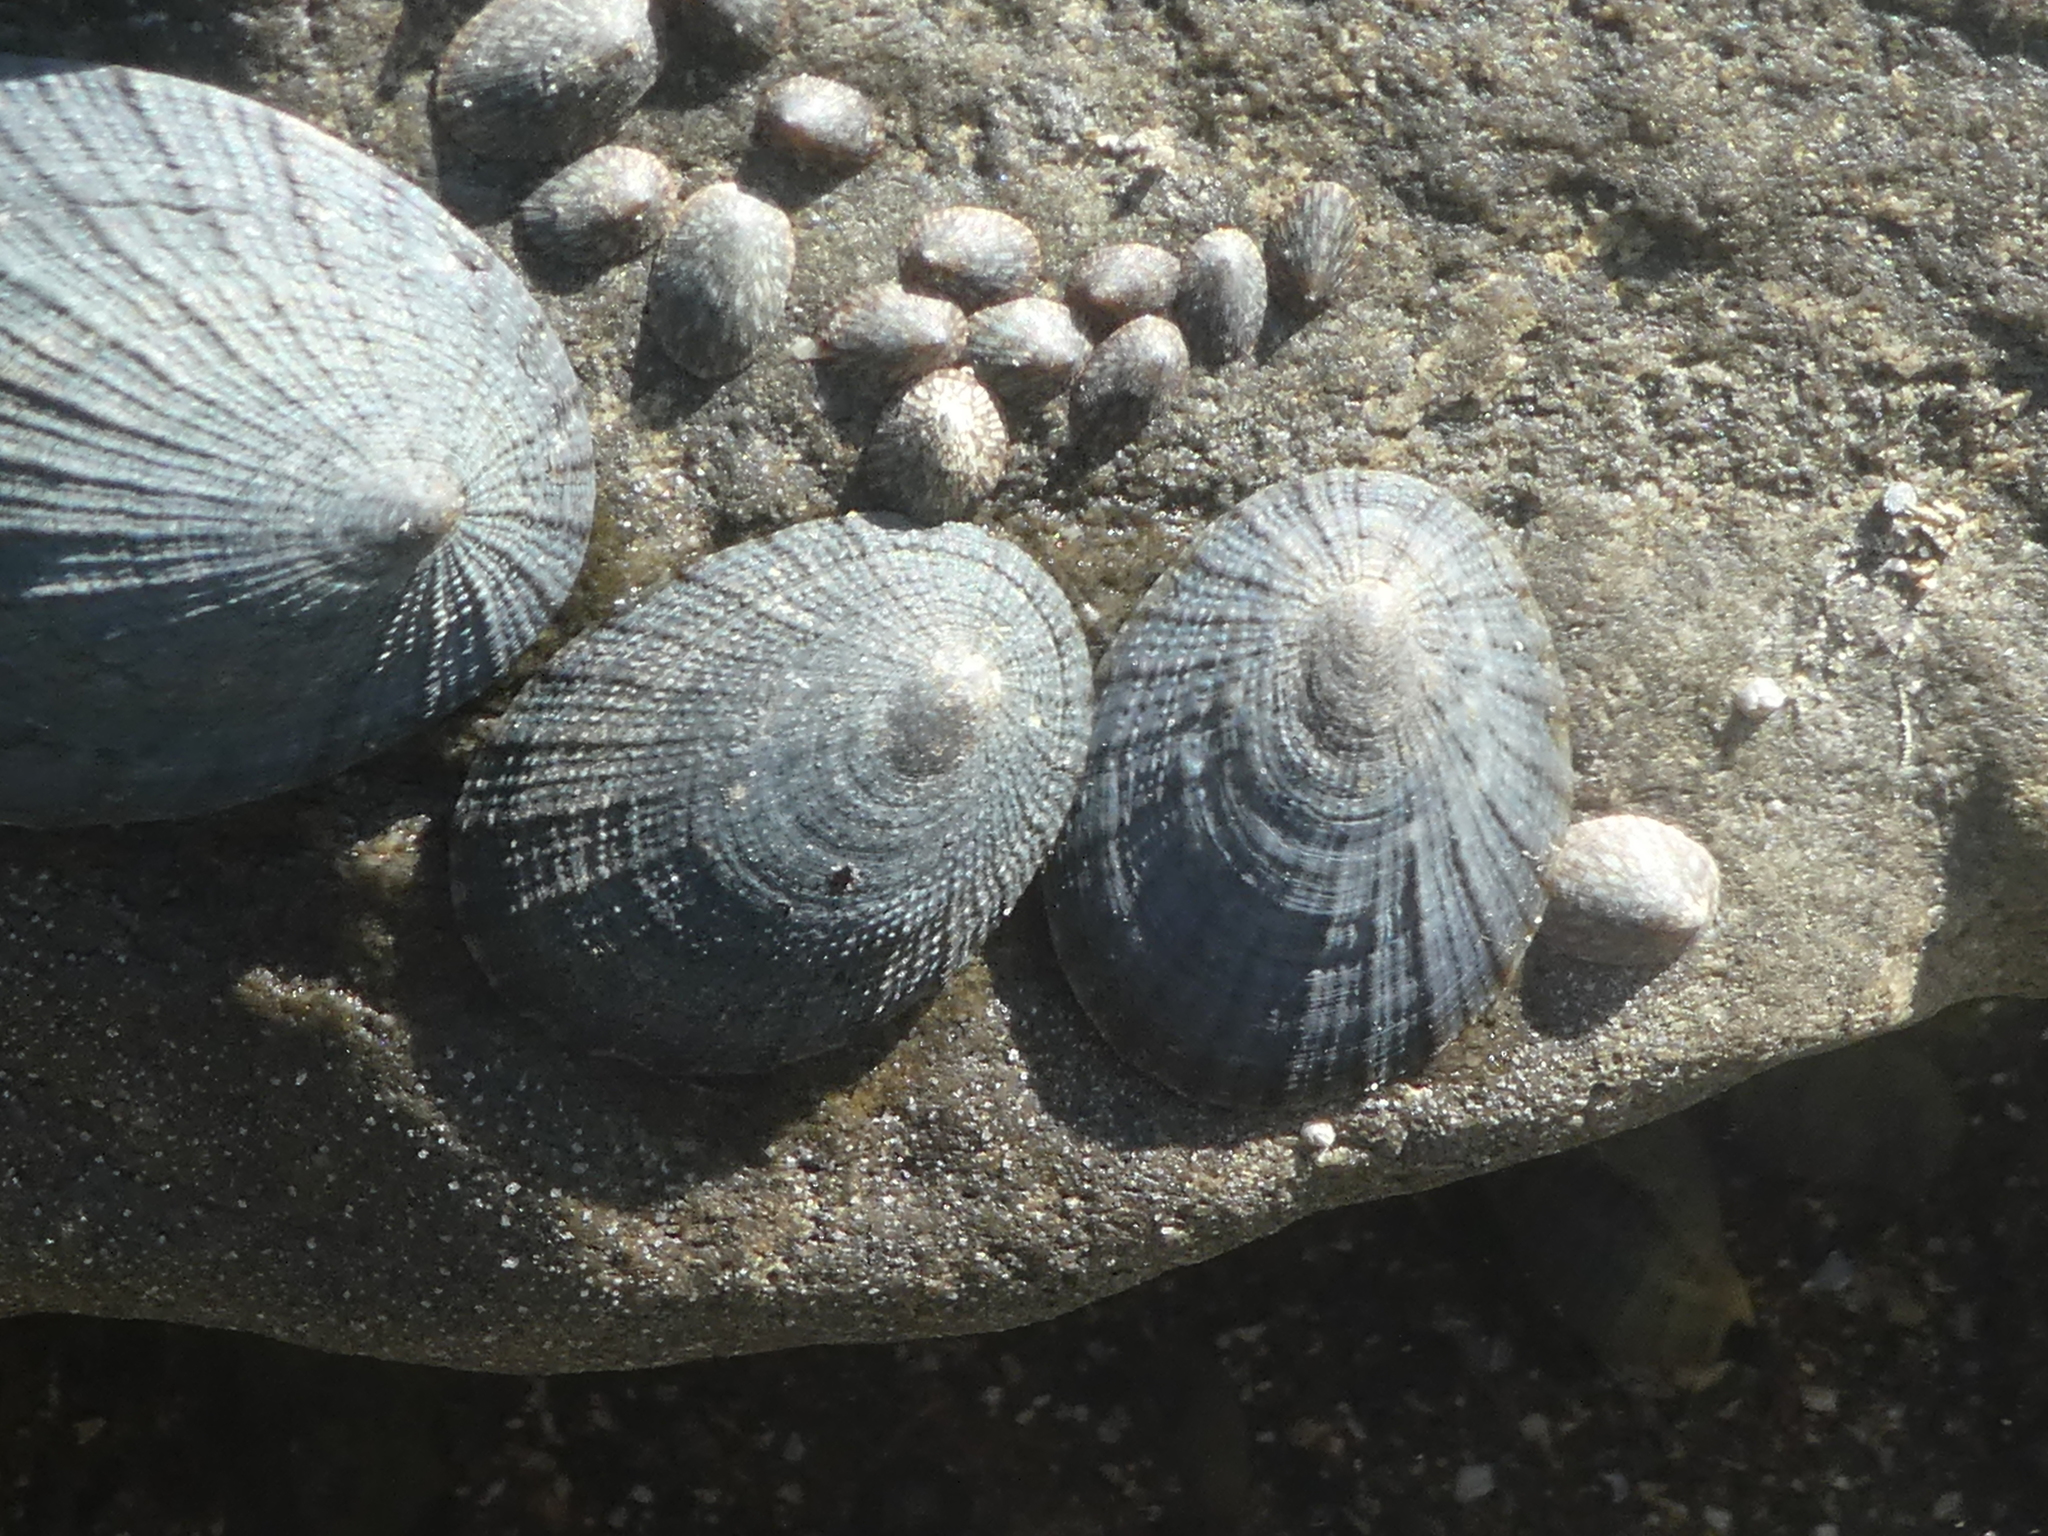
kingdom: Animalia
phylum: Mollusca
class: Gastropoda
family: Nacellidae
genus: Cellana
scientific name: Cellana radians
